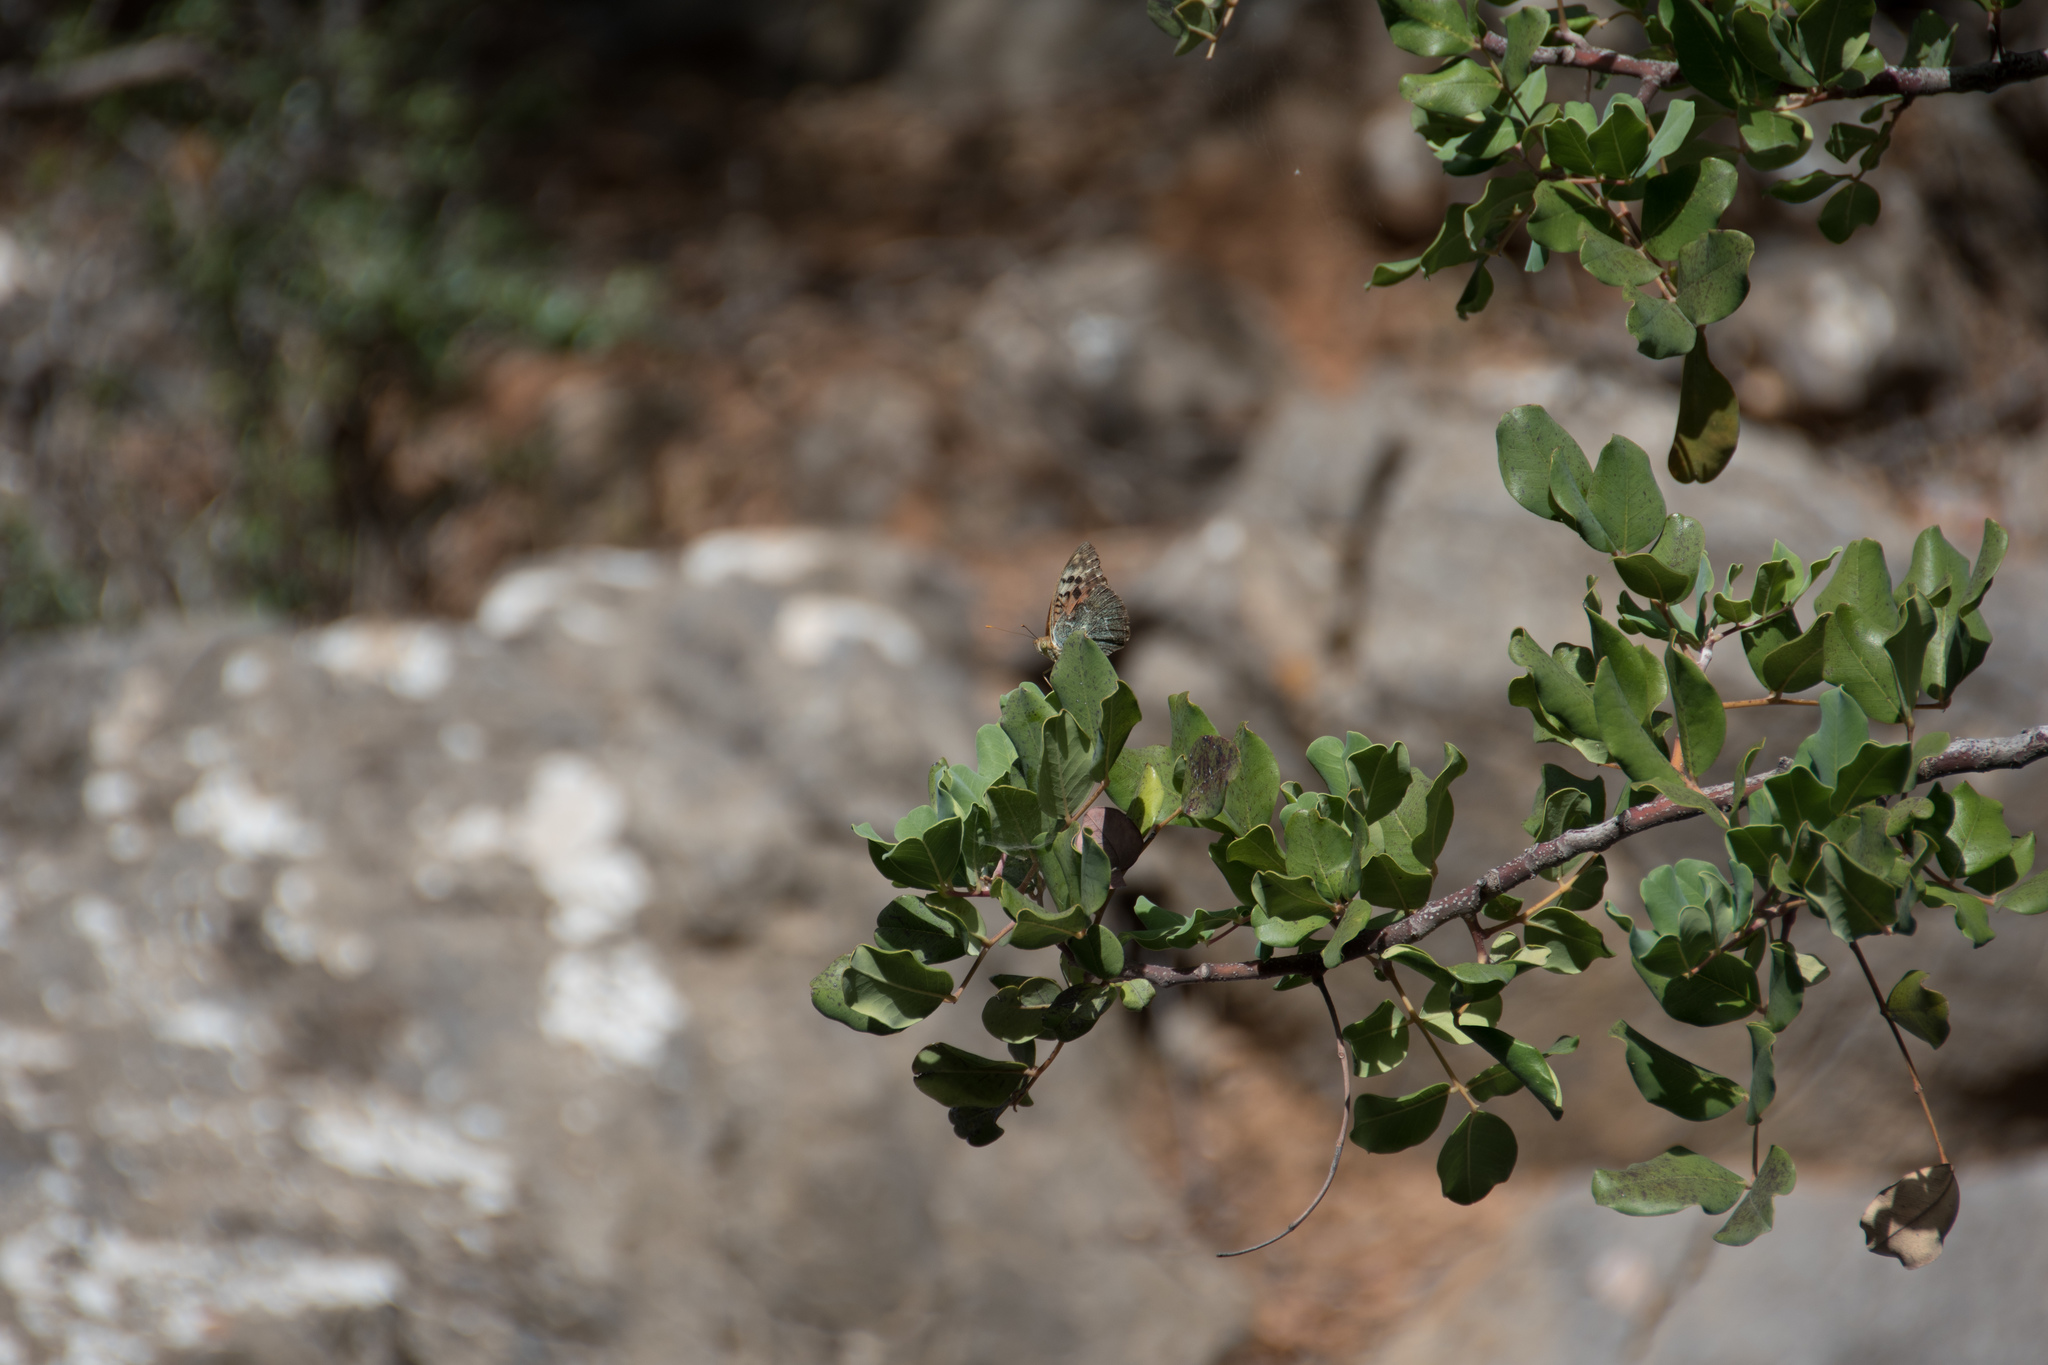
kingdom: Animalia
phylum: Arthropoda
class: Insecta
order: Lepidoptera
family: Nymphalidae
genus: Damora
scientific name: Damora pandora
